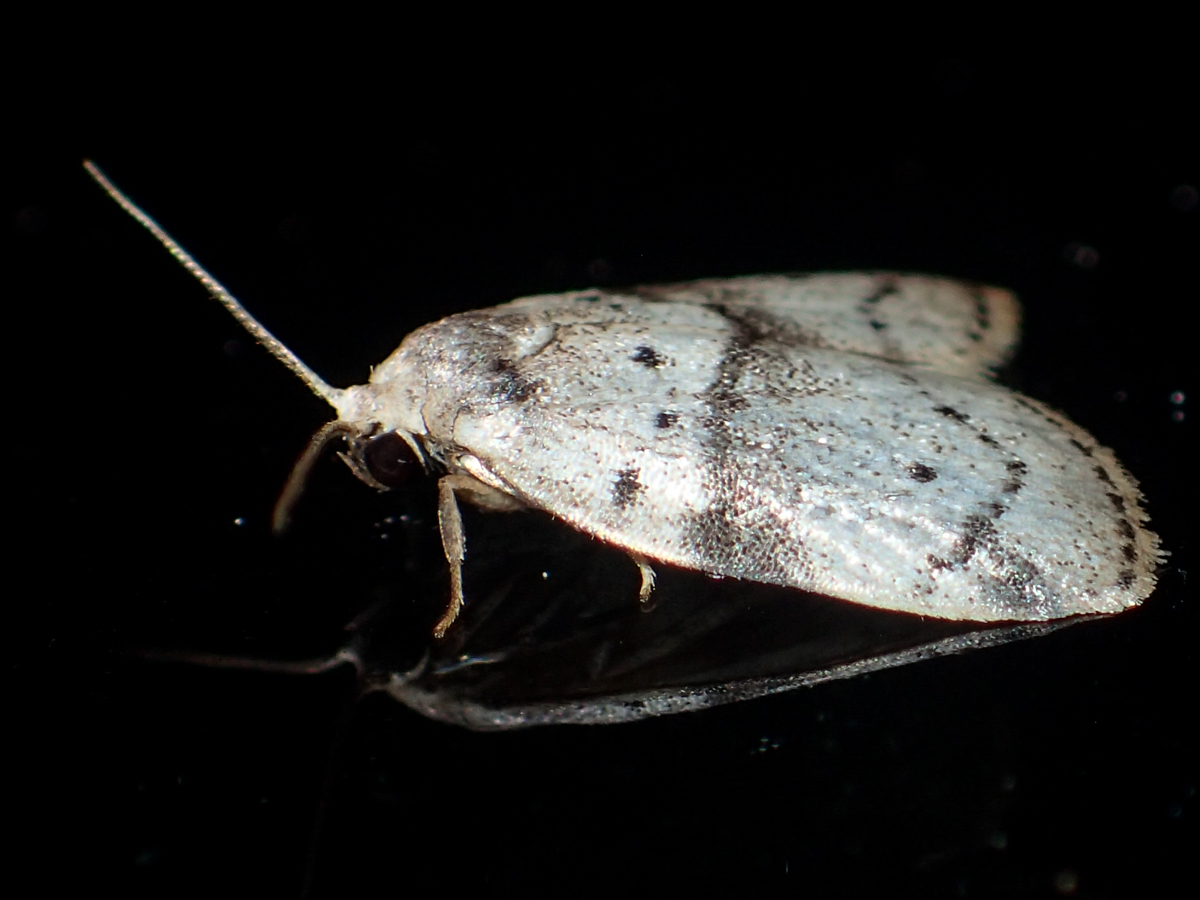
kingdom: Animalia
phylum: Arthropoda
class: Insecta
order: Lepidoptera
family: Erebidae
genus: Stictane
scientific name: Stictane pectenicorniculum
